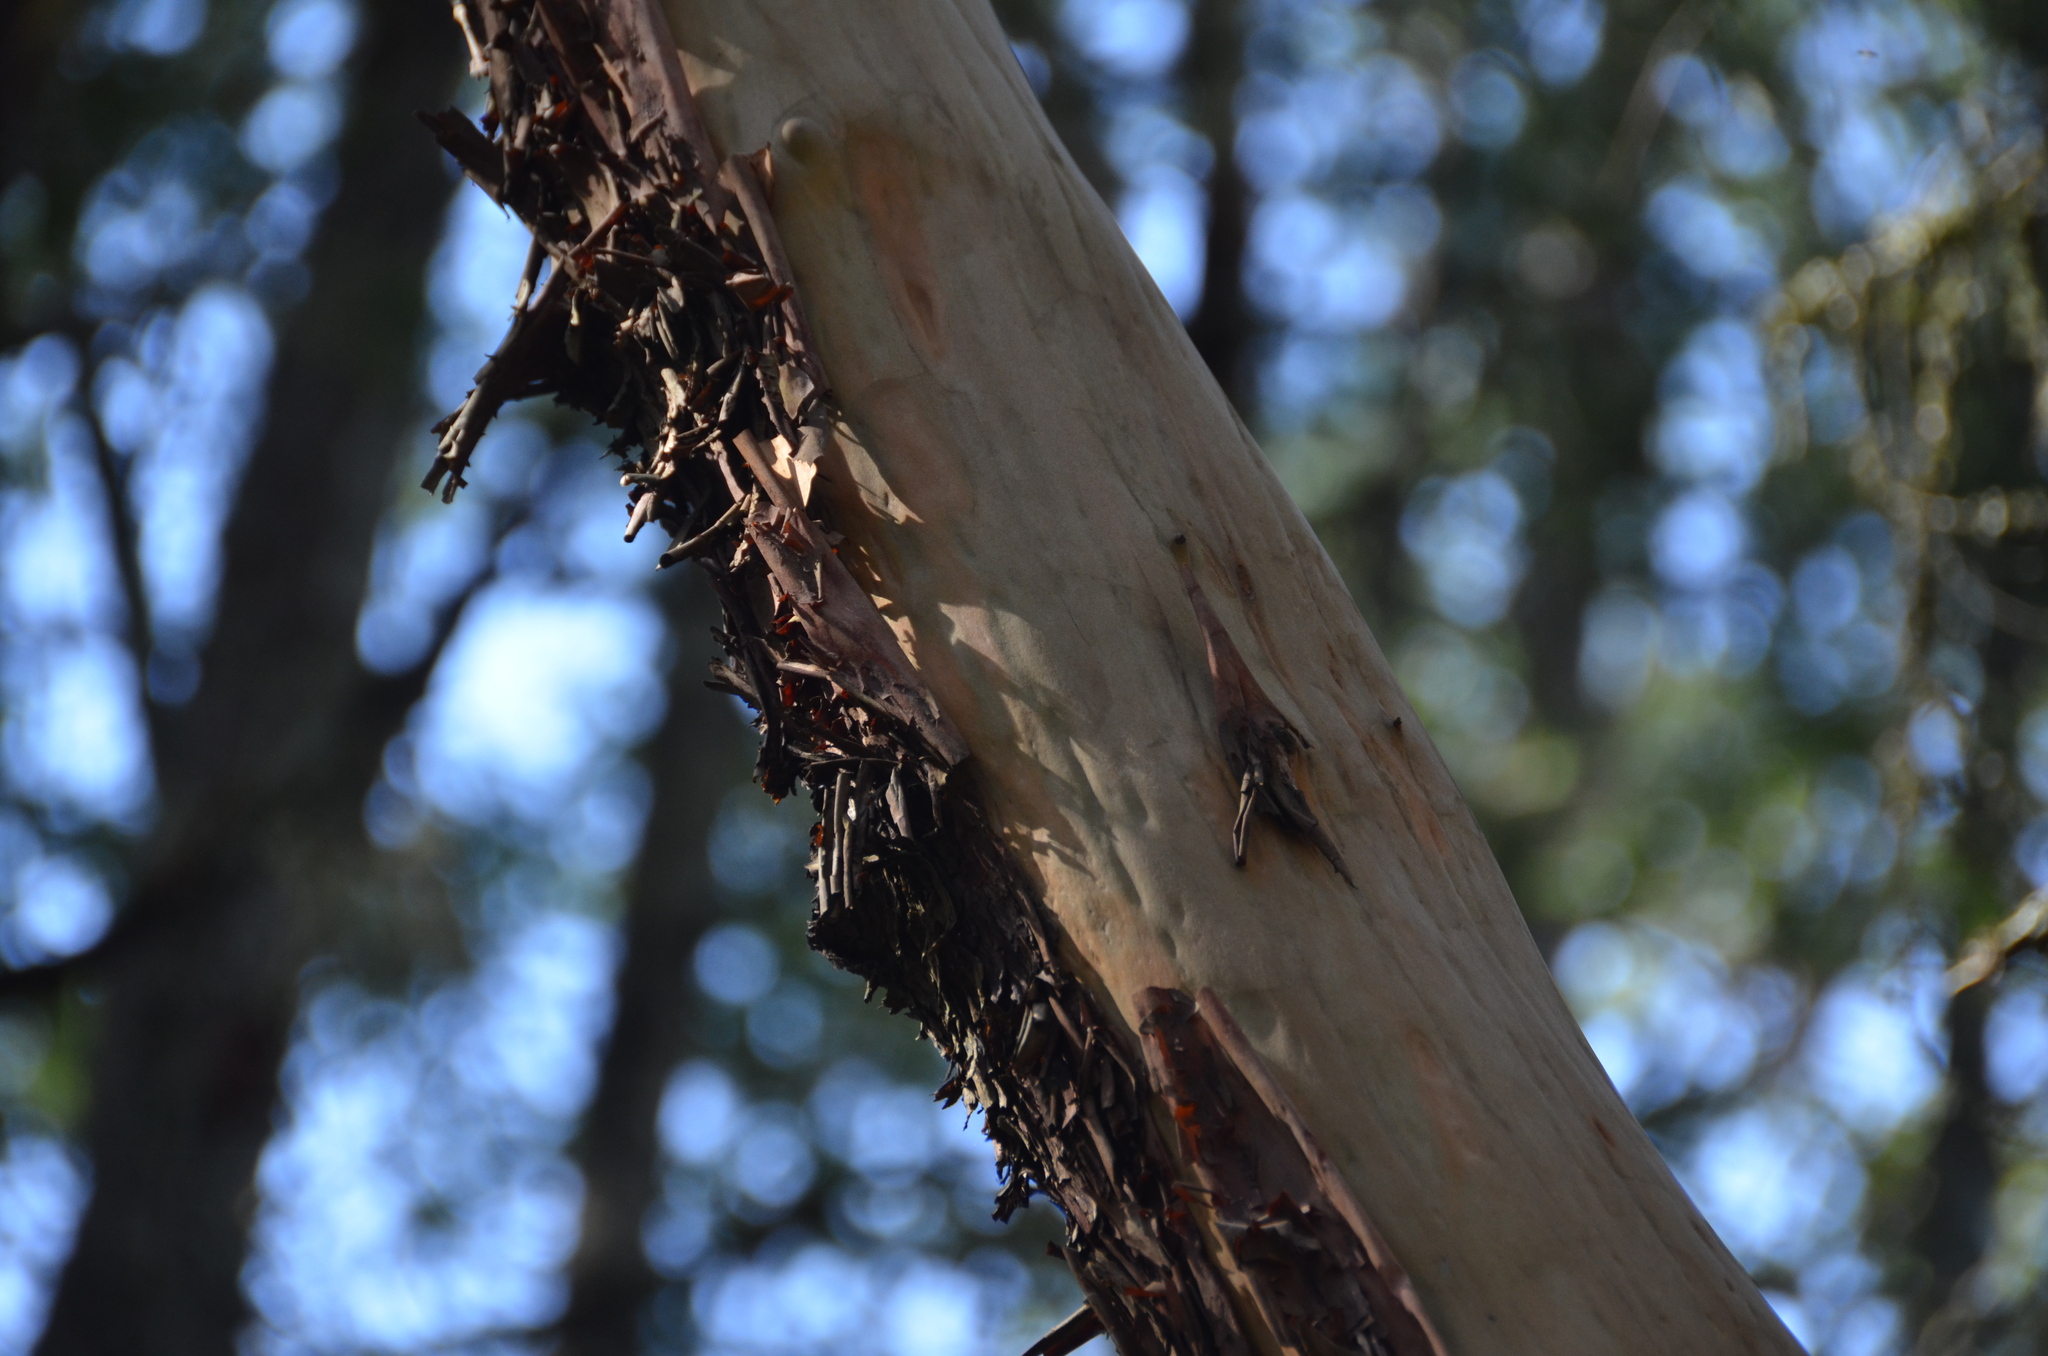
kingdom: Plantae
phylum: Tracheophyta
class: Magnoliopsida
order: Ericales
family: Ericaceae
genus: Arbutus
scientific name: Arbutus menziesii
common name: Pacific madrone
